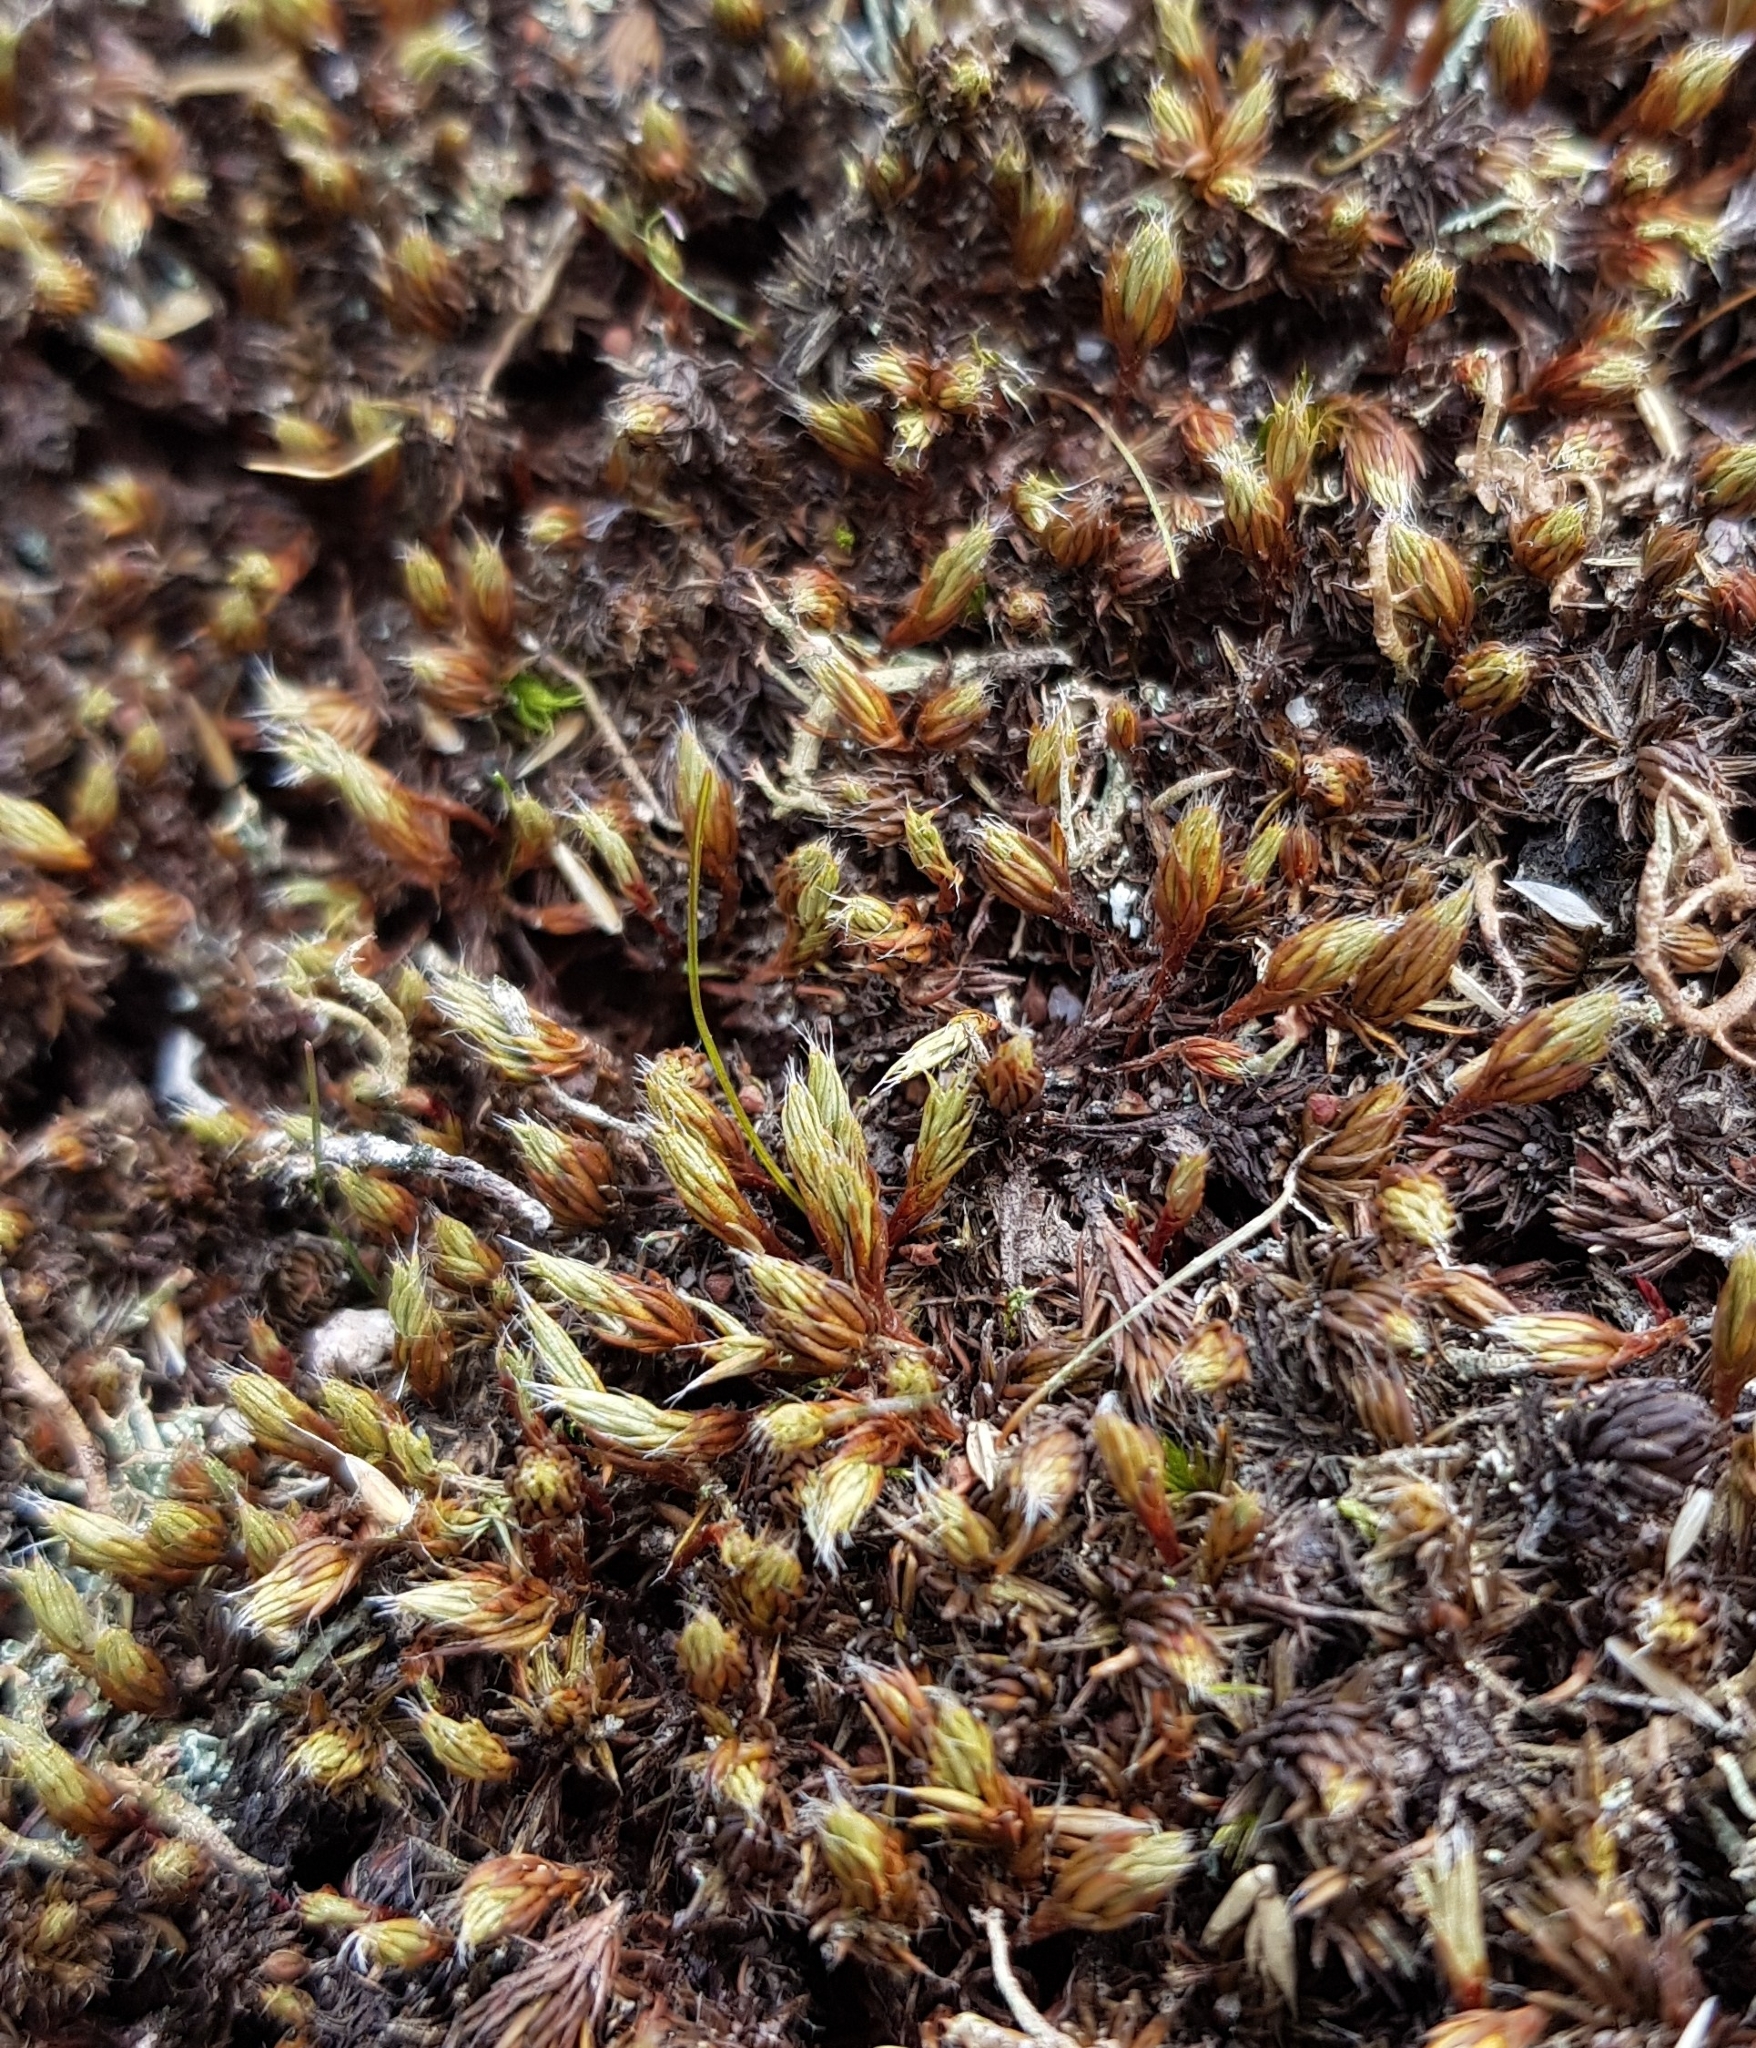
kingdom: Plantae
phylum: Bryophyta
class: Polytrichopsida
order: Polytrichales
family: Polytrichaceae
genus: Polytrichum
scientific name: Polytrichum piliferum
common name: Bristly haircap
